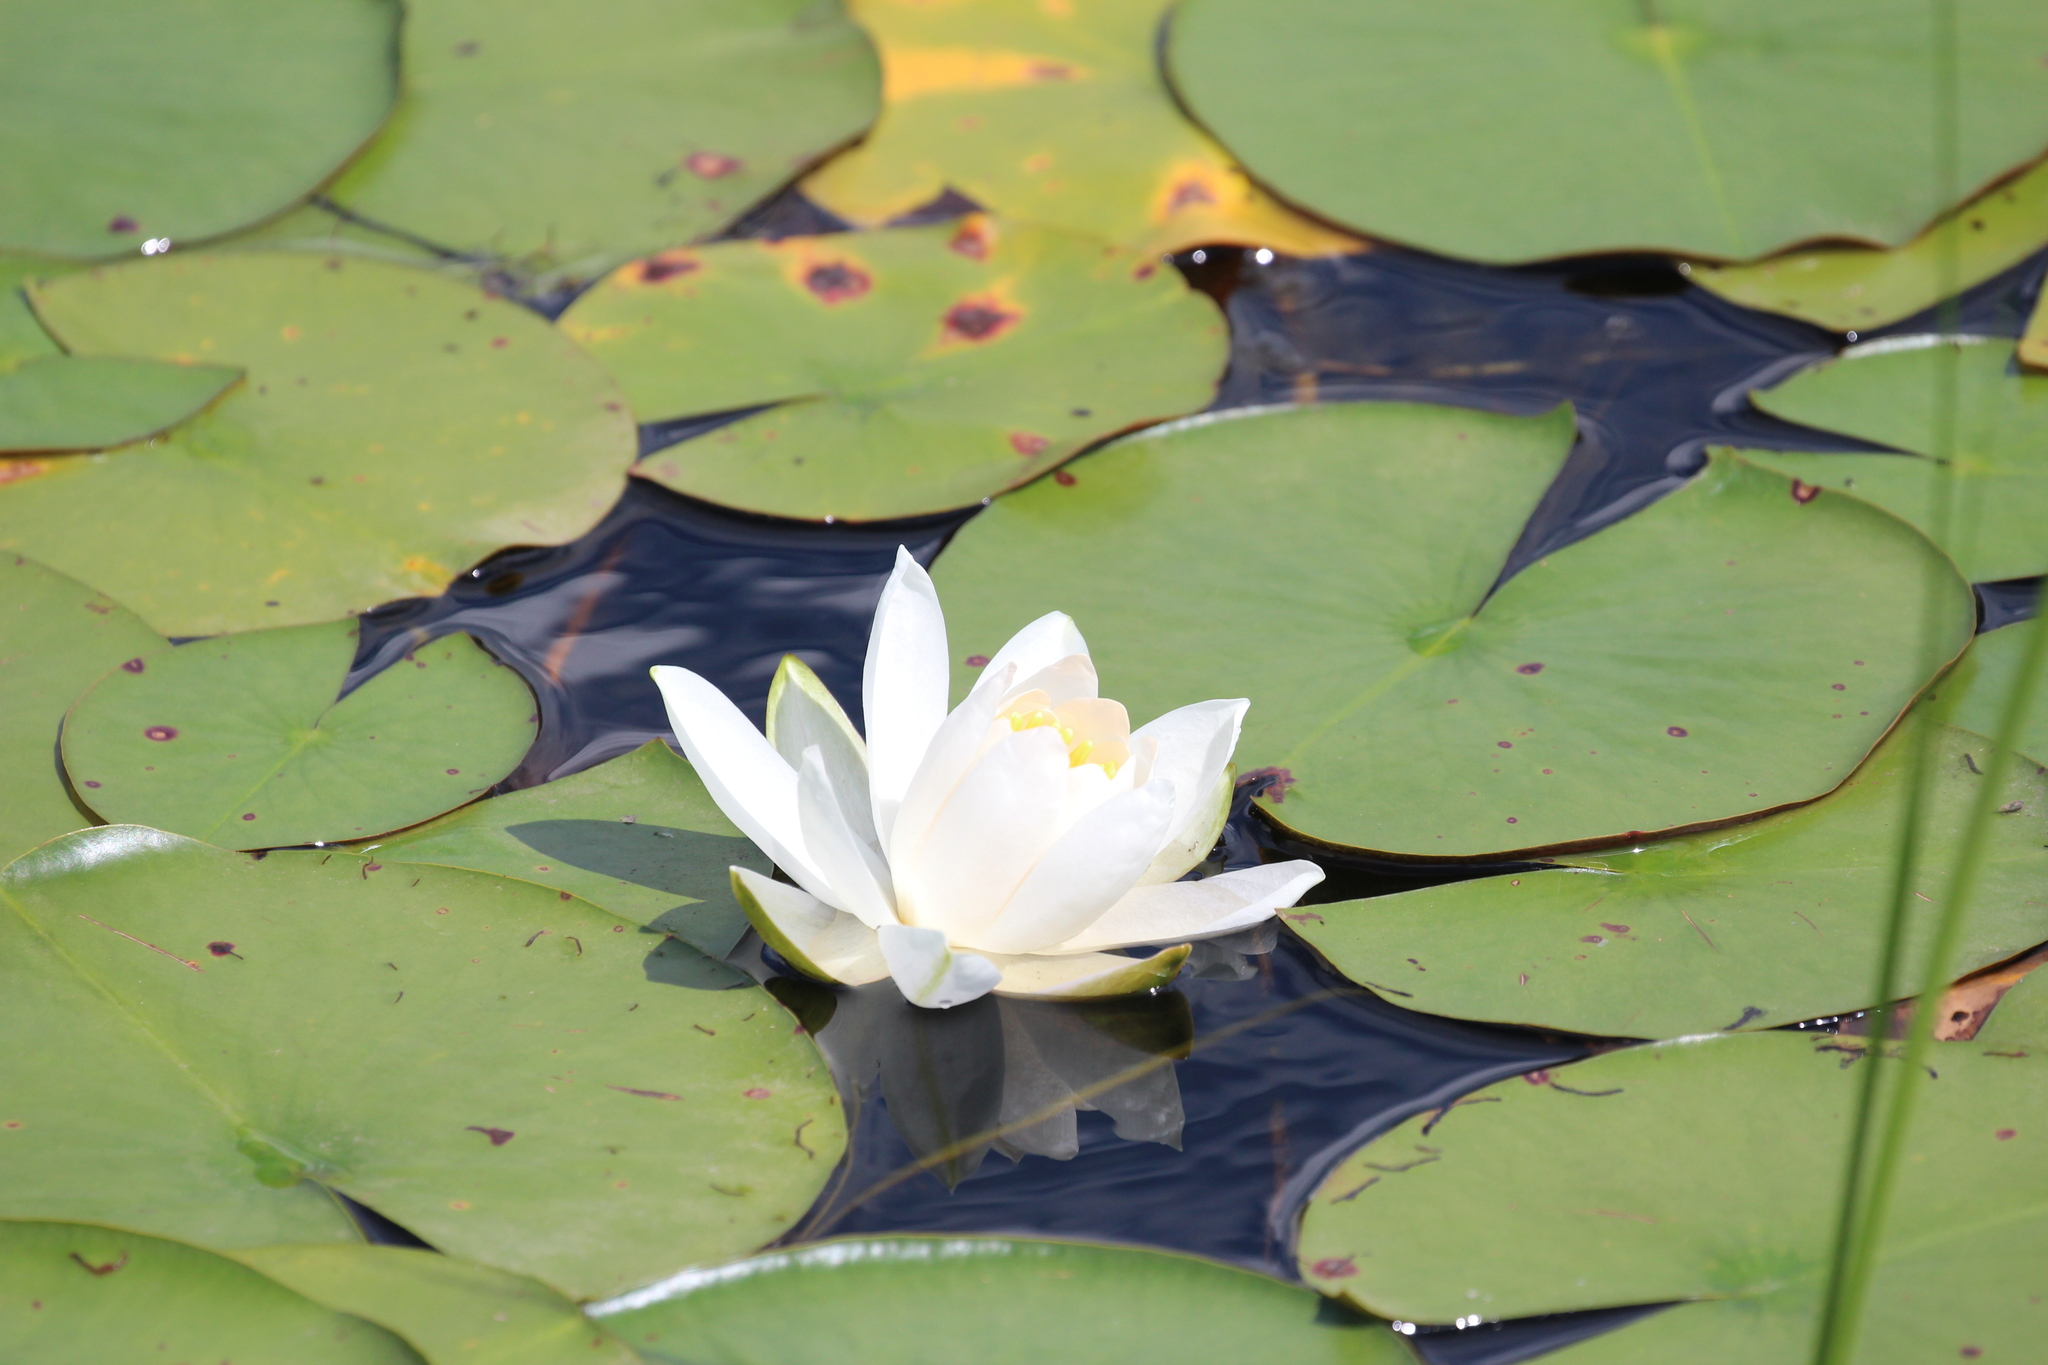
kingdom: Plantae
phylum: Tracheophyta
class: Magnoliopsida
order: Nymphaeales
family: Nymphaeaceae
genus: Nymphaea
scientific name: Nymphaea odorata
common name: Fragrant water-lily
